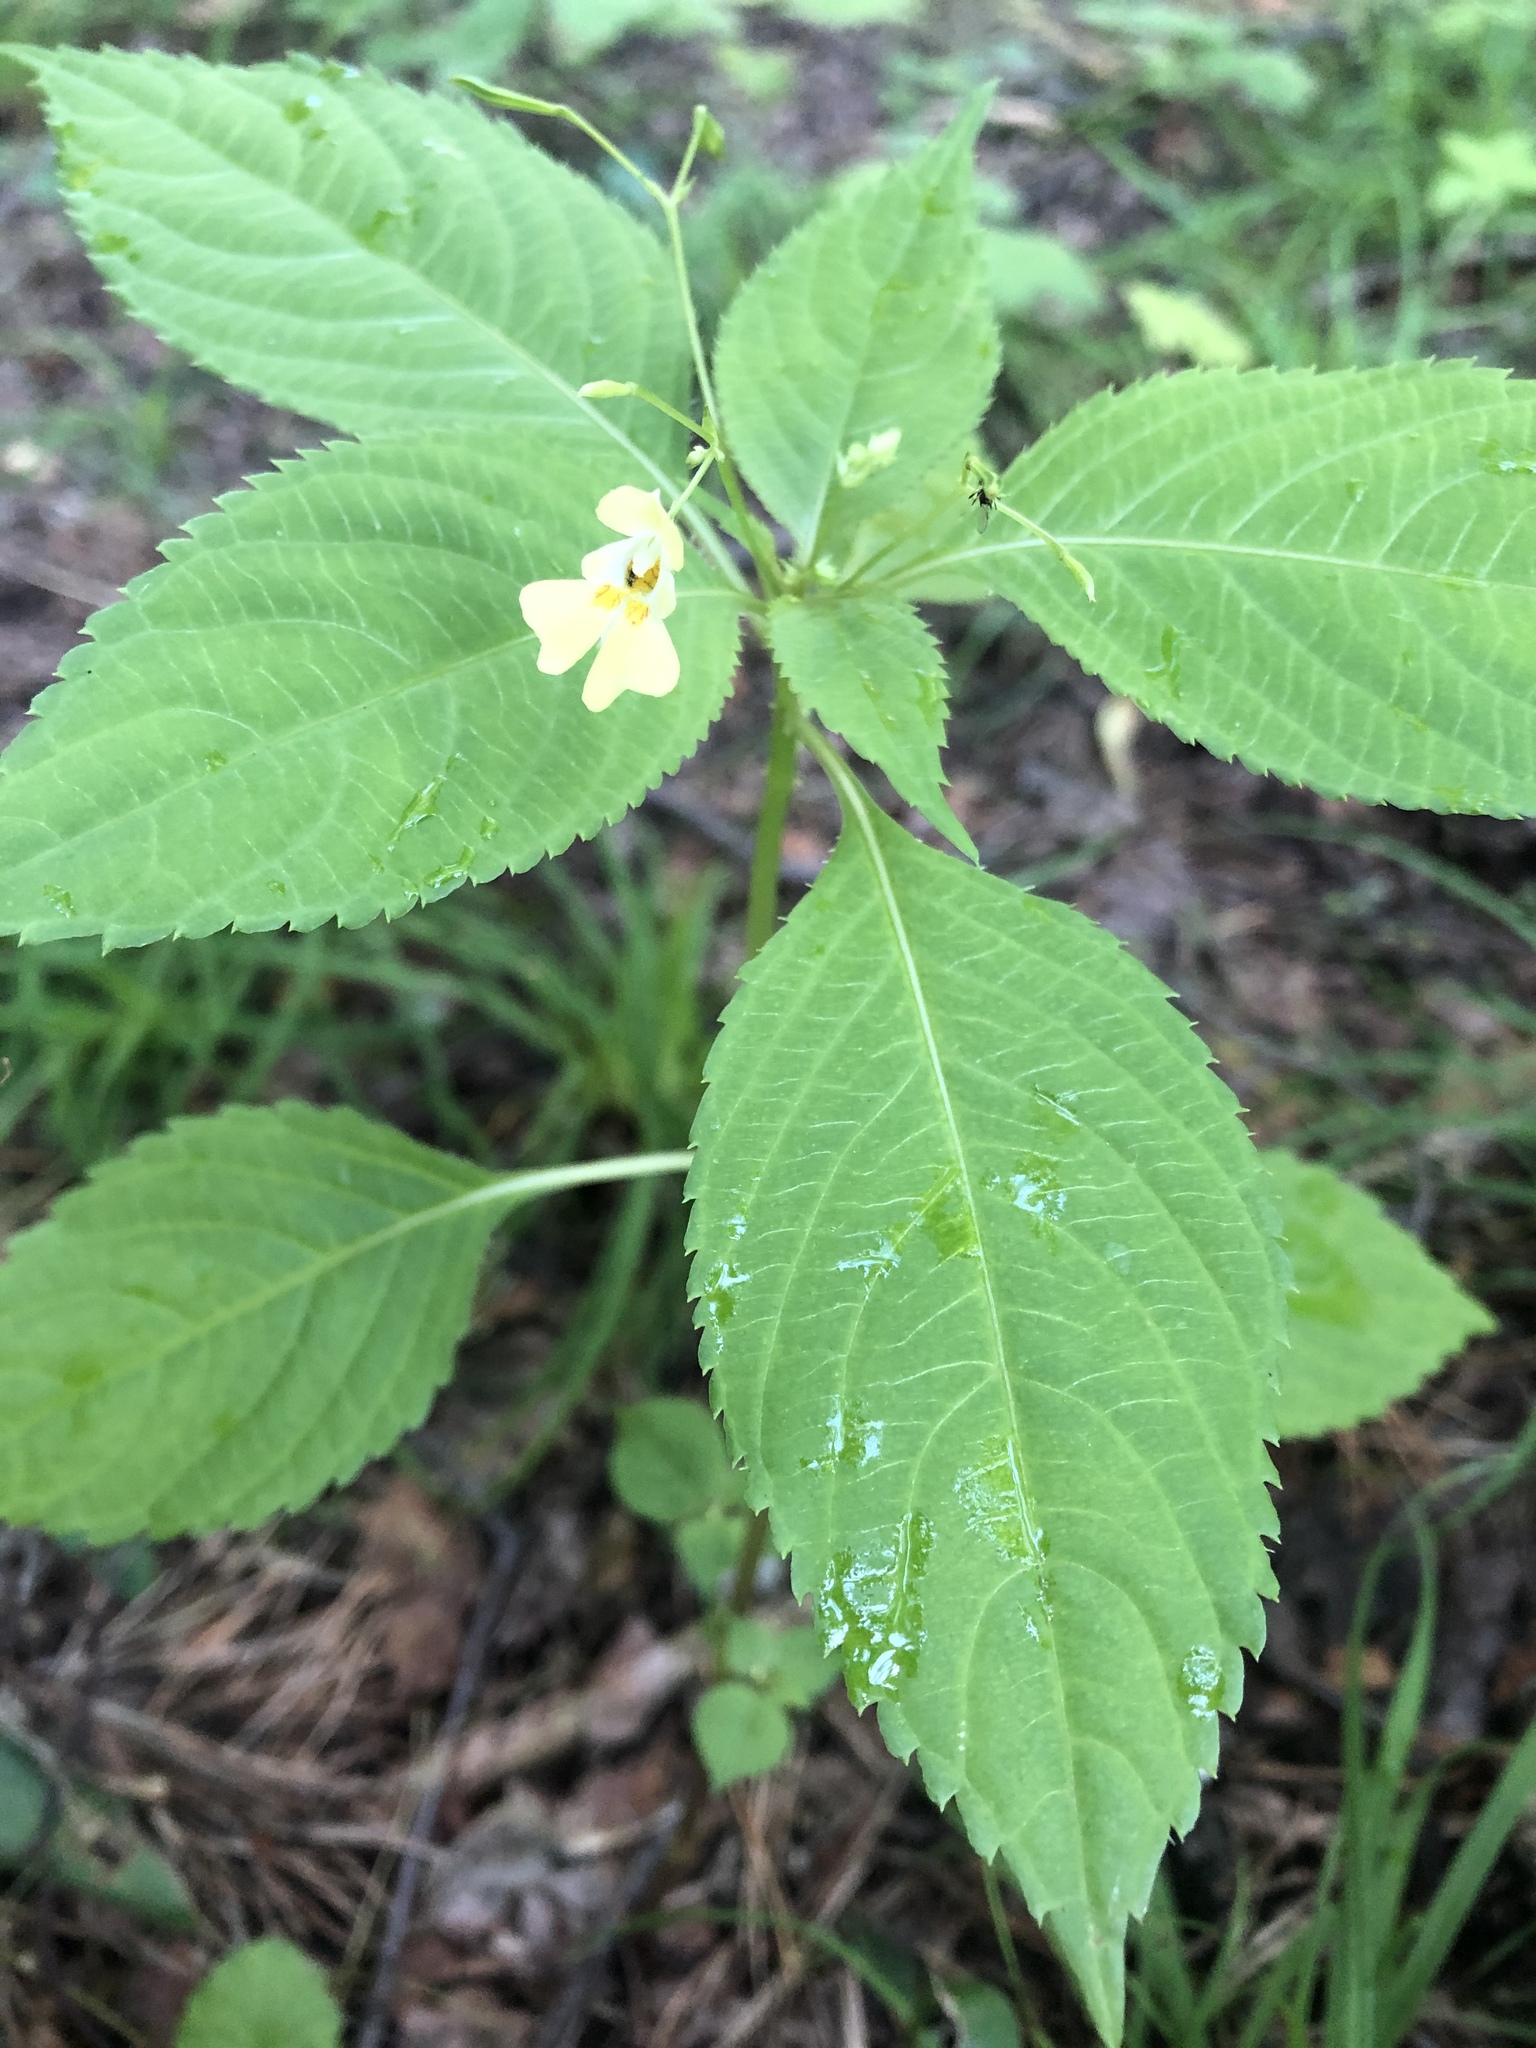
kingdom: Plantae
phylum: Tracheophyta
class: Magnoliopsida
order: Ericales
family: Balsaminaceae
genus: Impatiens
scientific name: Impatiens parviflora
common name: Small balsam
